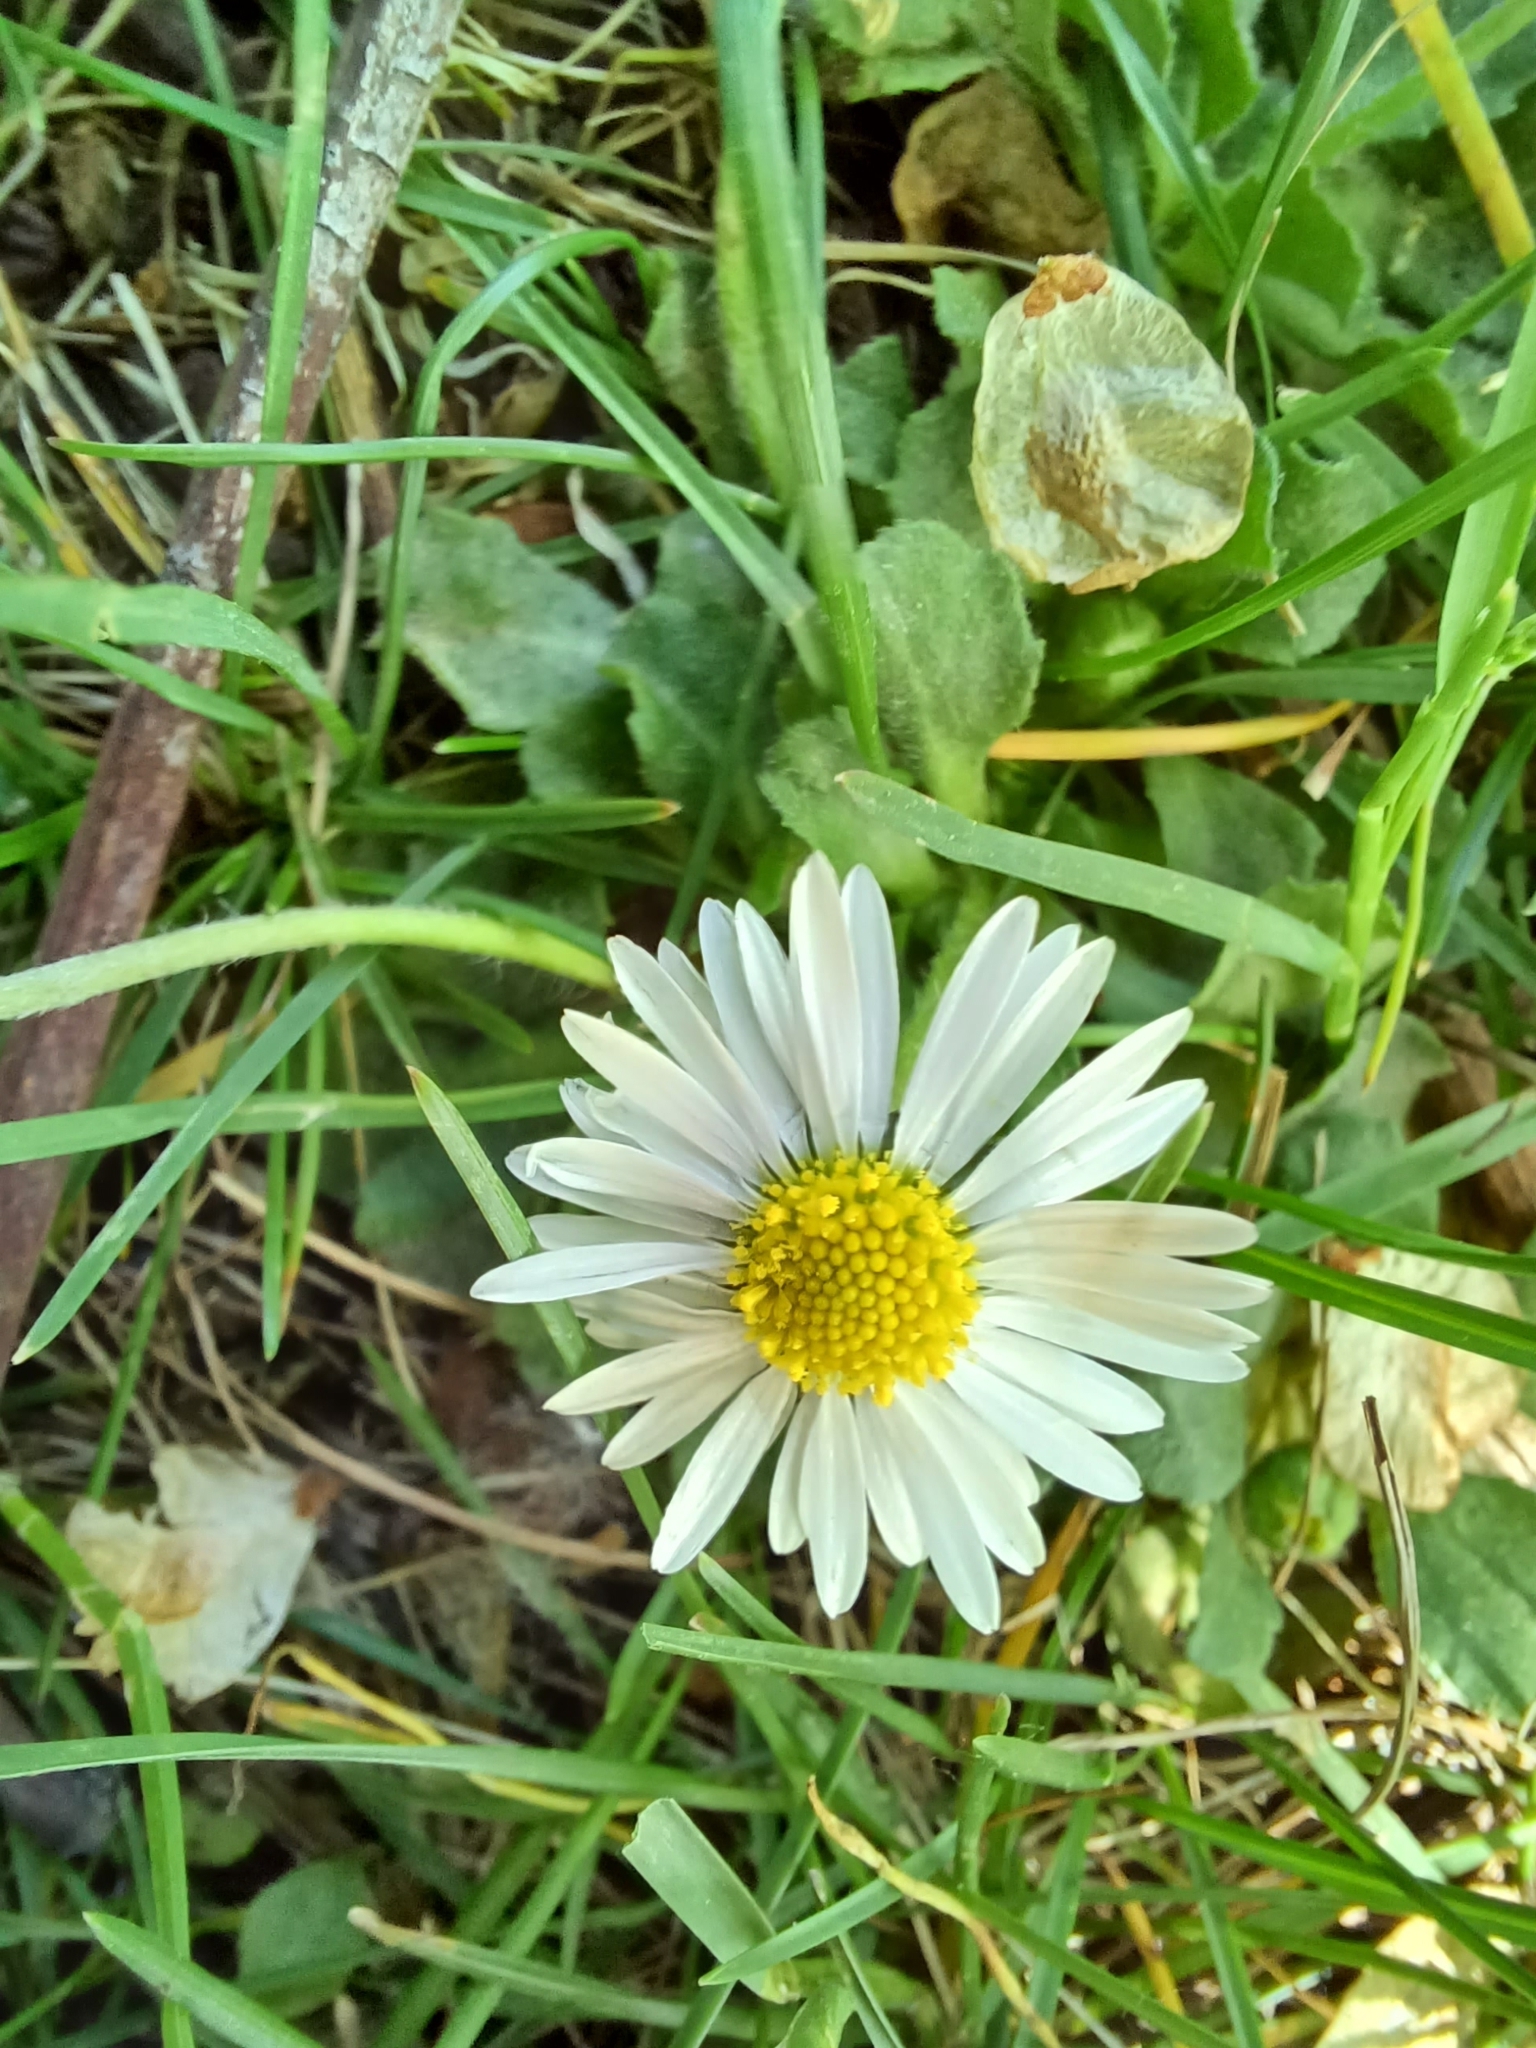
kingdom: Plantae
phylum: Tracheophyta
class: Magnoliopsida
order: Asterales
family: Asteraceae
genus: Bellis
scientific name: Bellis perennis
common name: Lawndaisy
